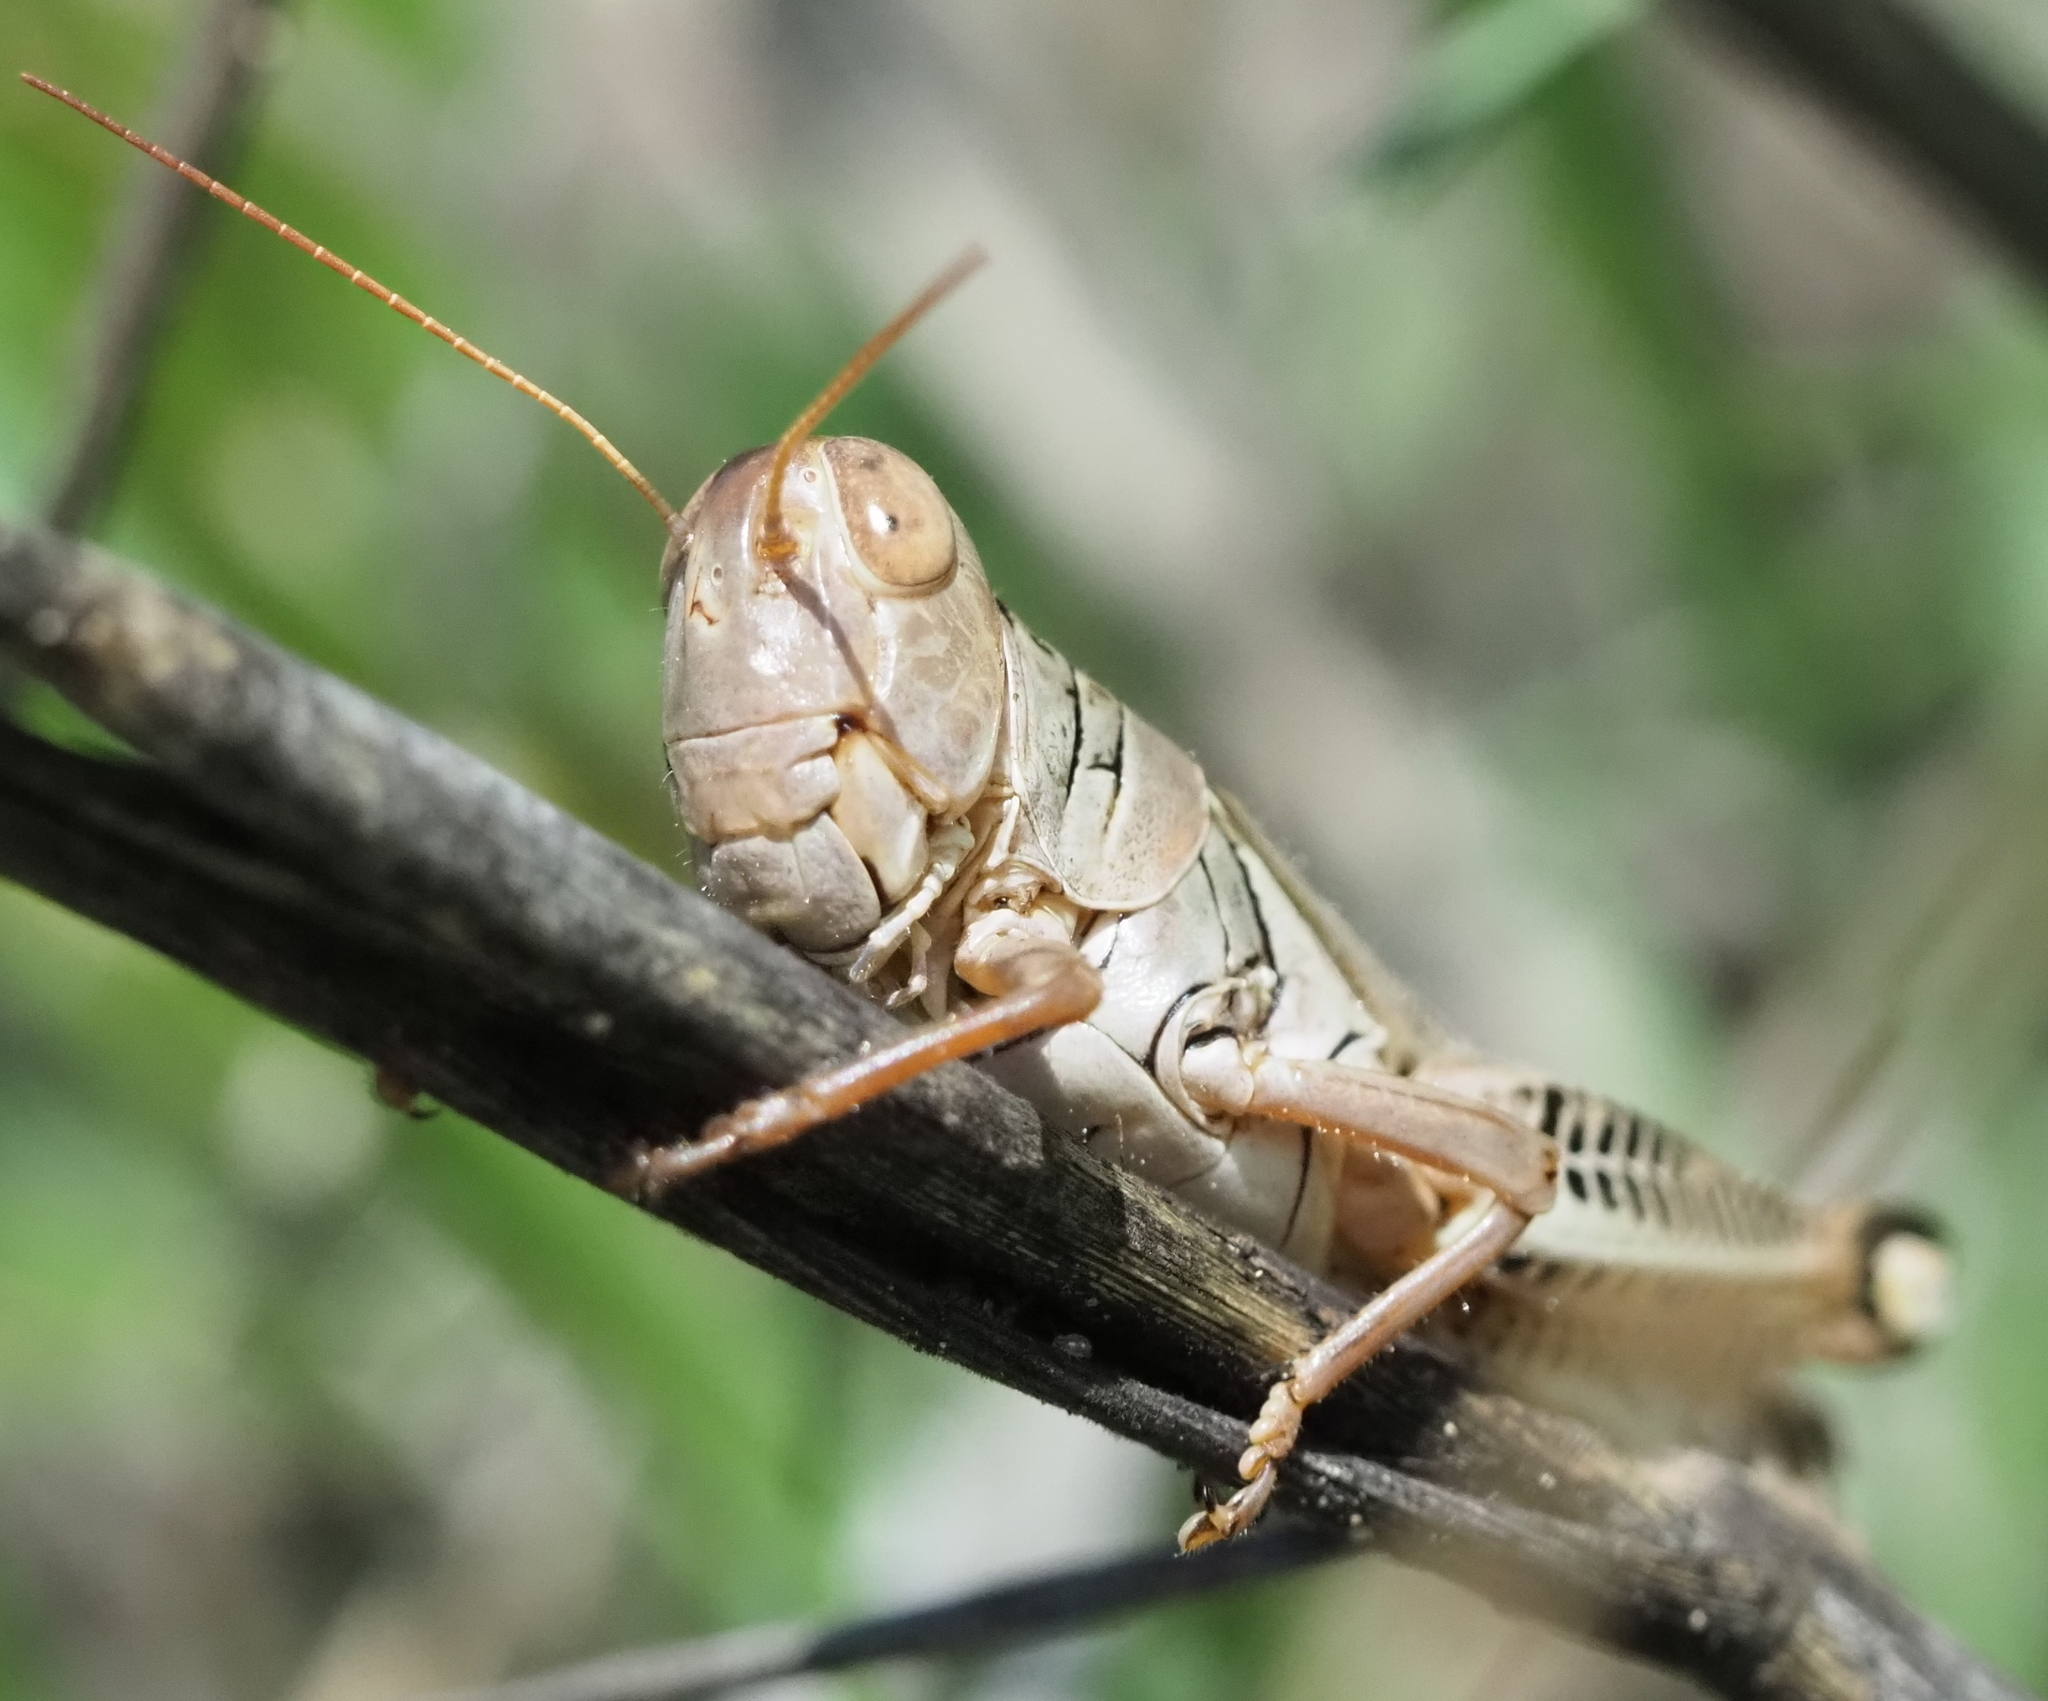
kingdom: Animalia
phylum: Arthropoda
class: Insecta
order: Orthoptera
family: Acrididae
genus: Melanoplus
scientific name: Melanoplus differentialis
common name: Differential grasshopper
